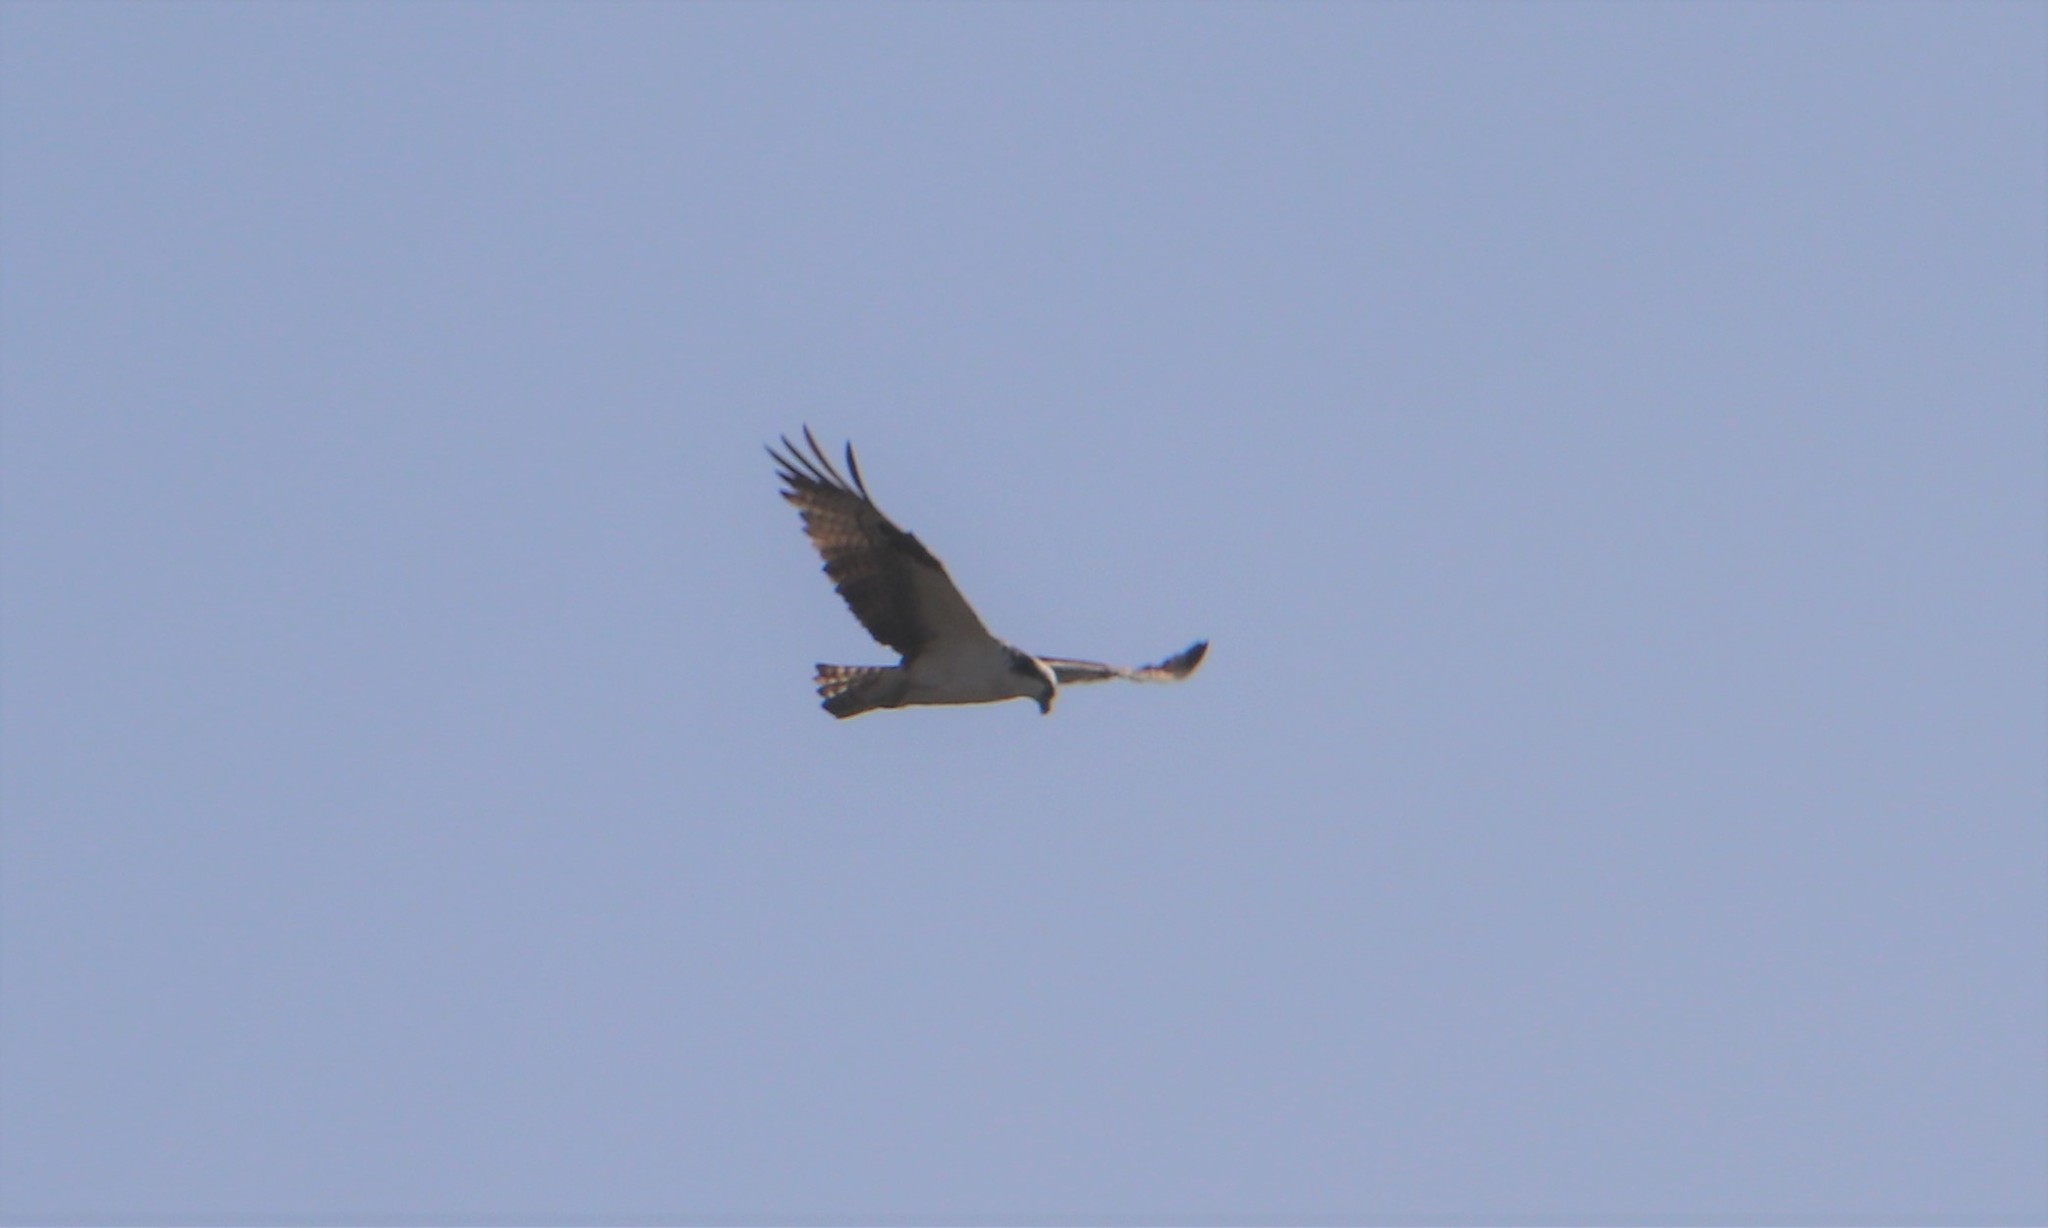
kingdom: Animalia
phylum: Chordata
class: Aves
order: Accipitriformes
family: Pandionidae
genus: Pandion
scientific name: Pandion haliaetus
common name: Osprey
